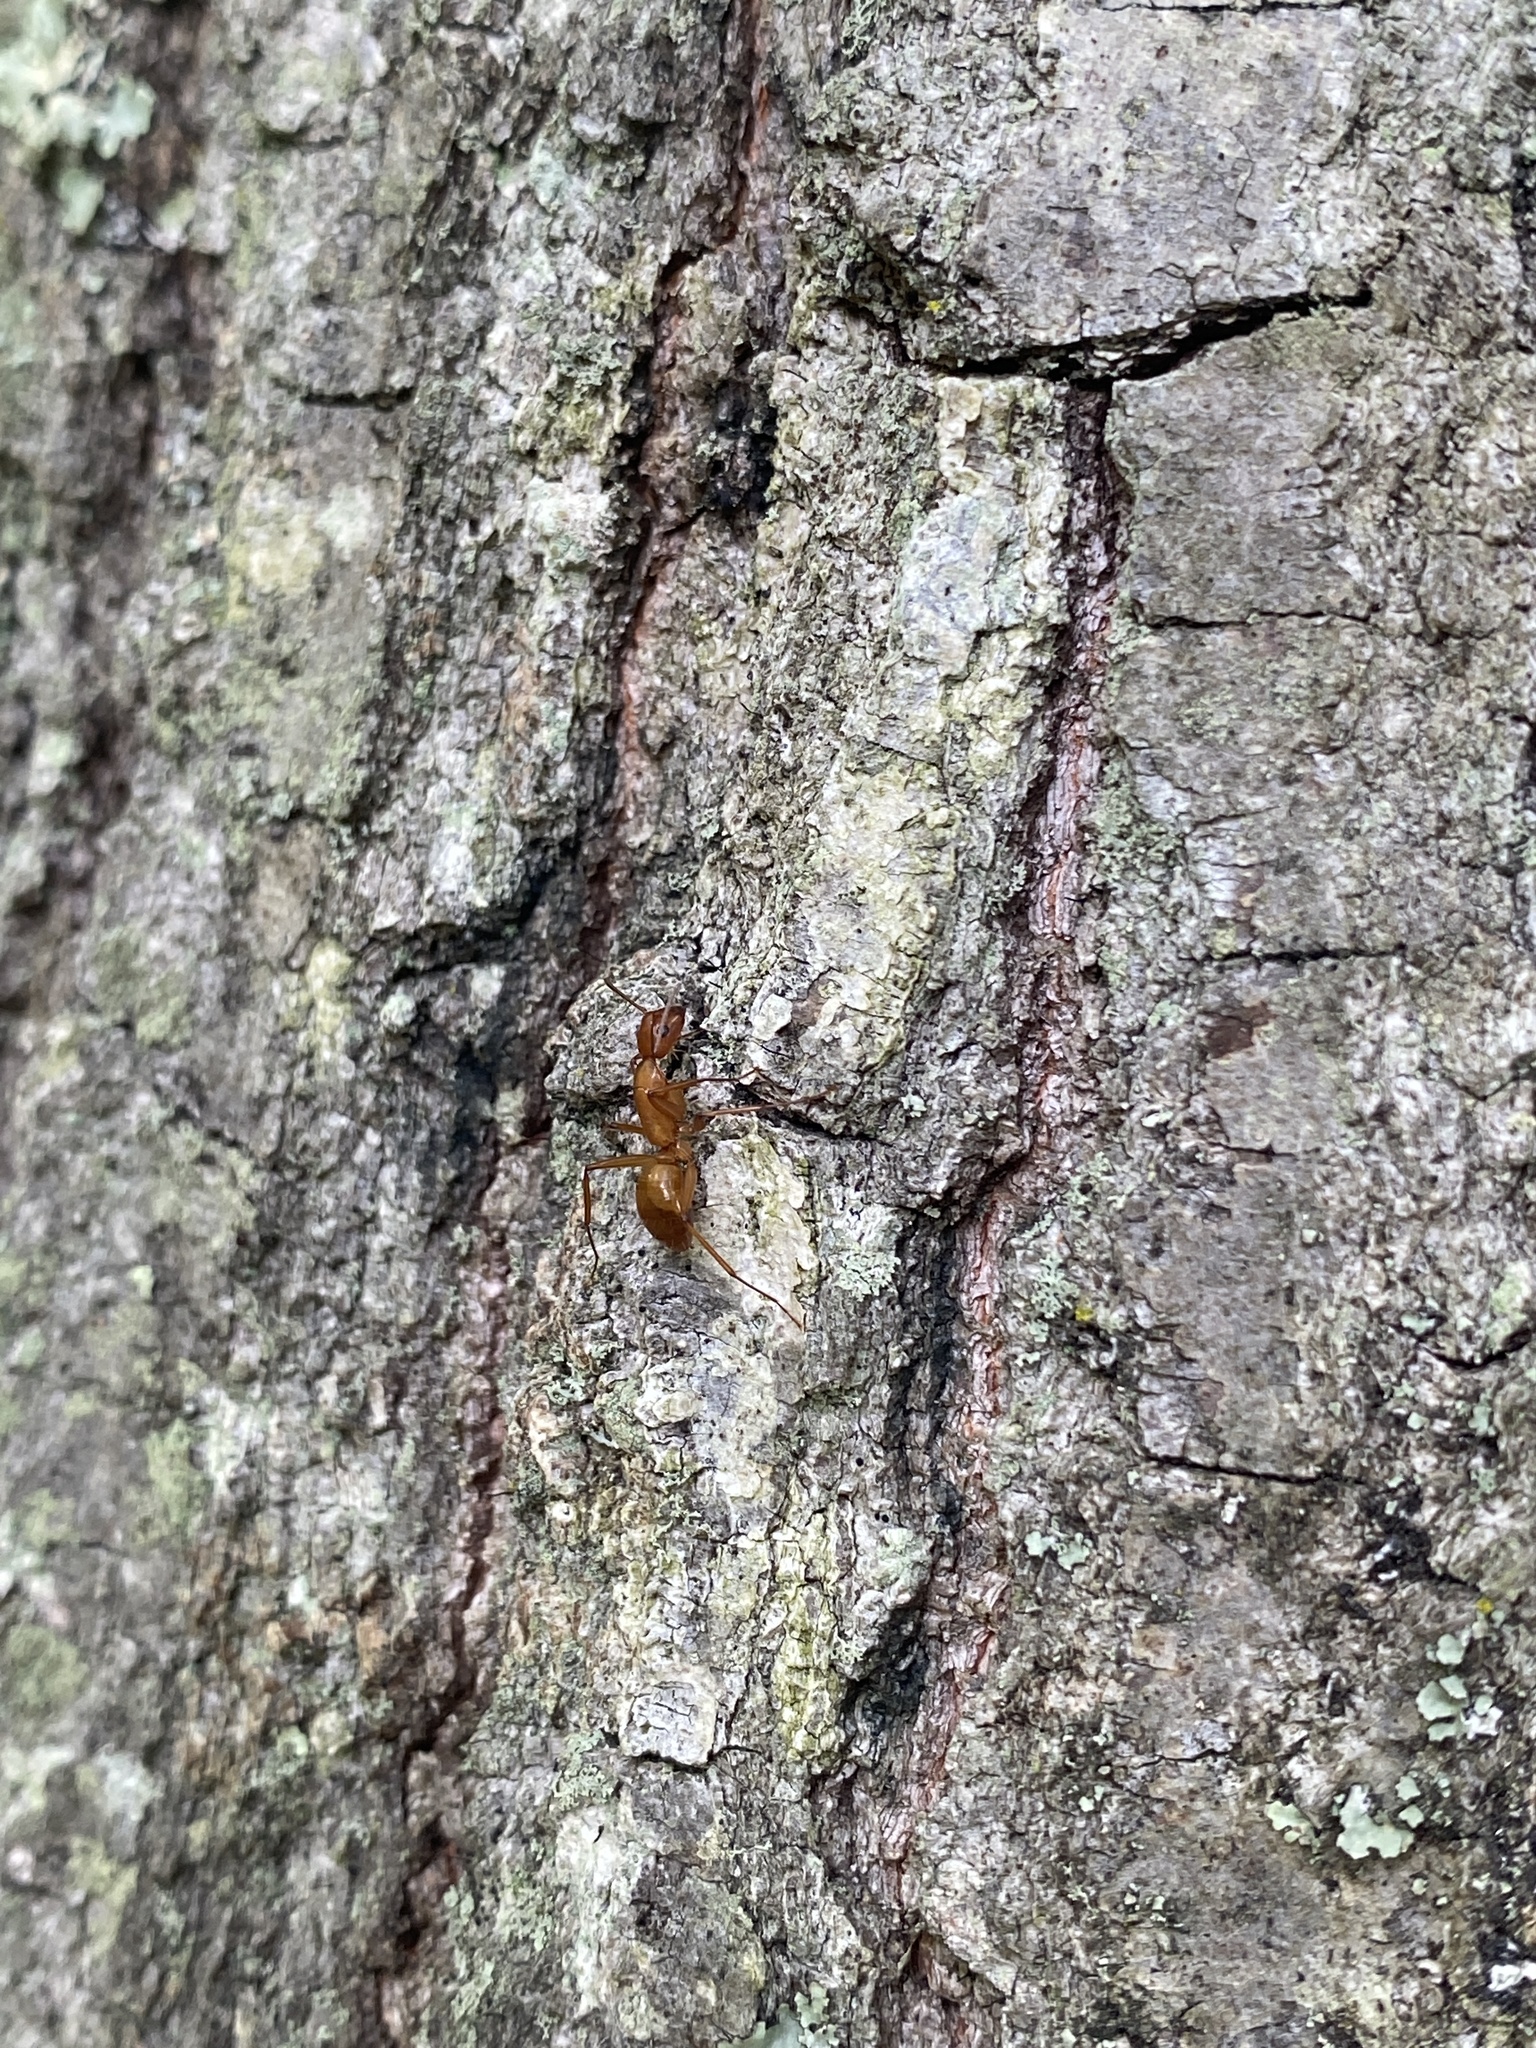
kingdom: Animalia
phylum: Arthropoda
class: Insecta
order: Hymenoptera
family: Formicidae
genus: Camponotus
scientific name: Camponotus castaneus
